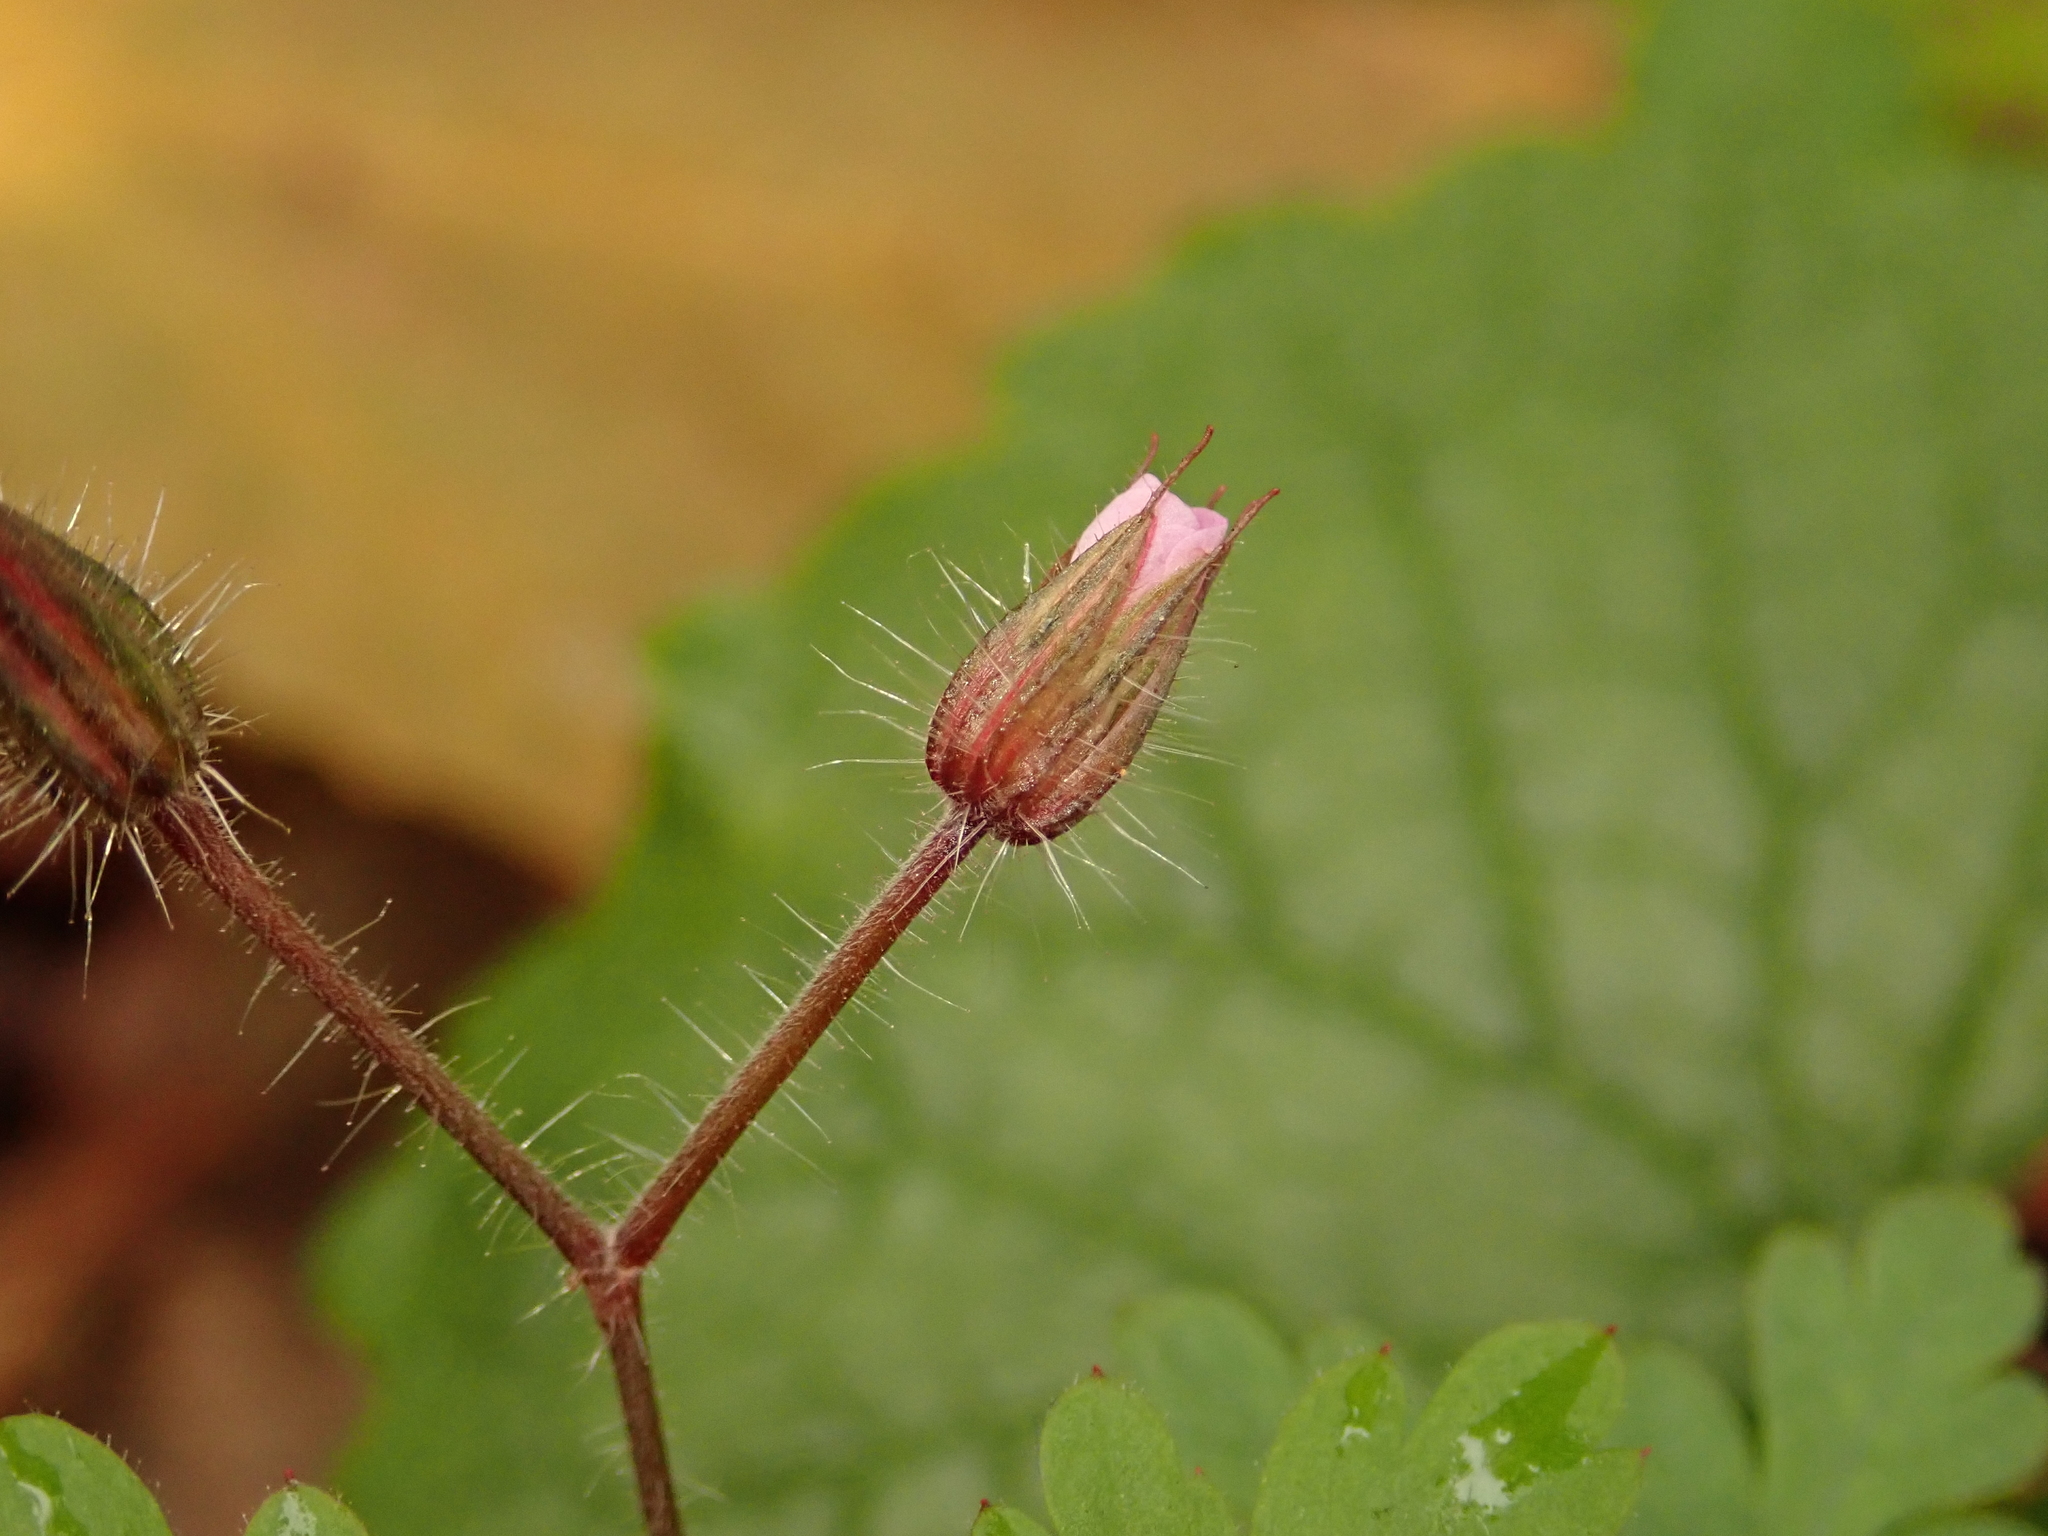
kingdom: Plantae
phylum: Tracheophyta
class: Magnoliopsida
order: Geraniales
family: Geraniaceae
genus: Geranium
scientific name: Geranium robertianum
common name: Herb-robert
